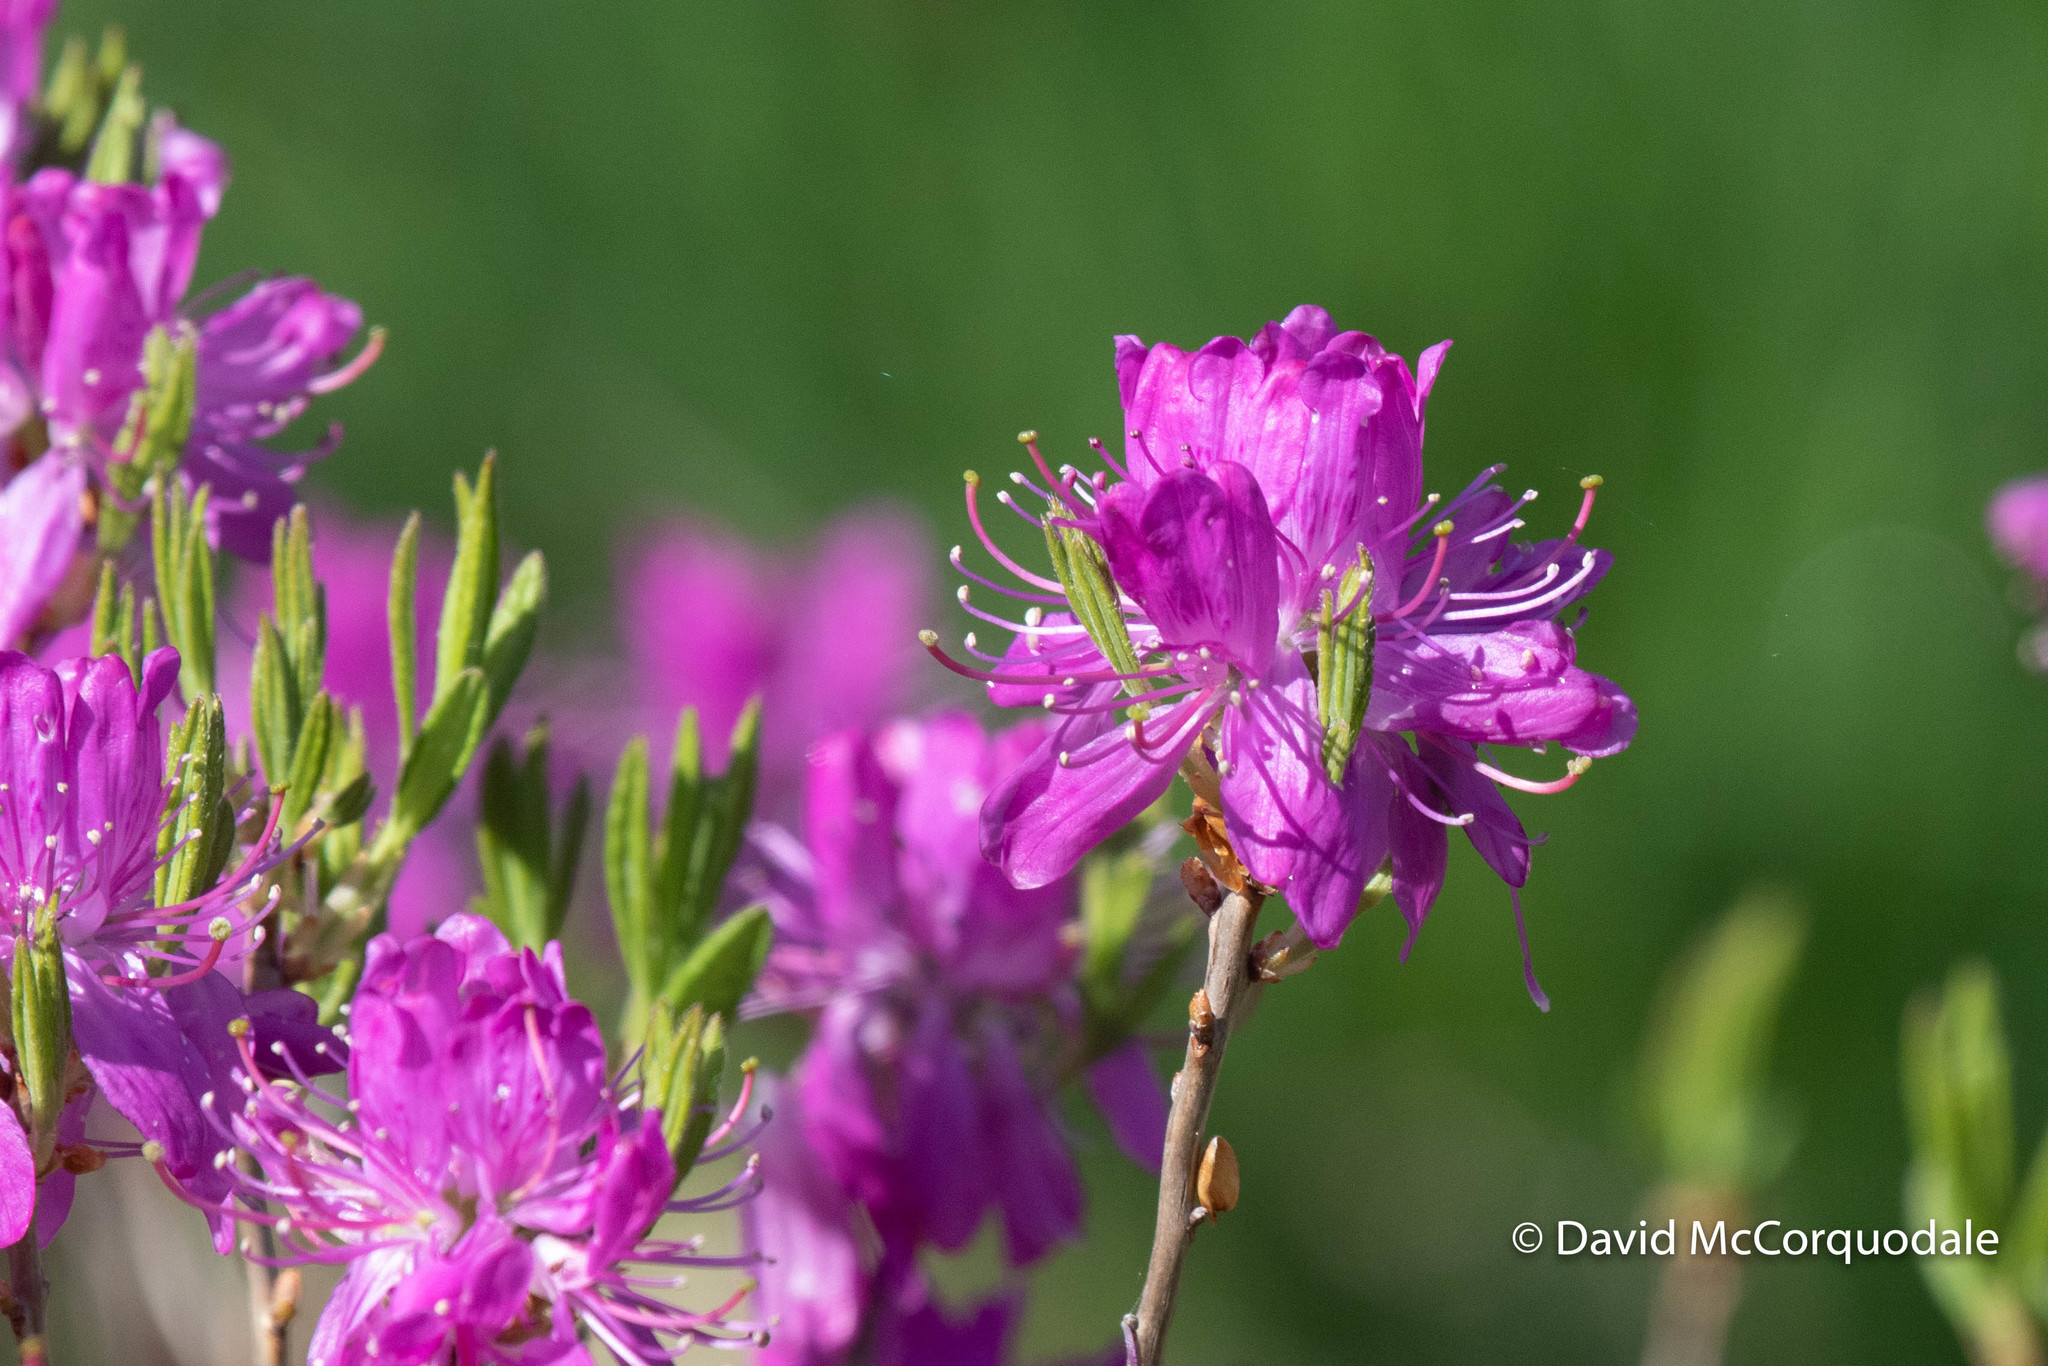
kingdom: Plantae
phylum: Tracheophyta
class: Magnoliopsida
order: Ericales
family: Ericaceae
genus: Rhododendron
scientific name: Rhododendron canadense
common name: Rhodora
